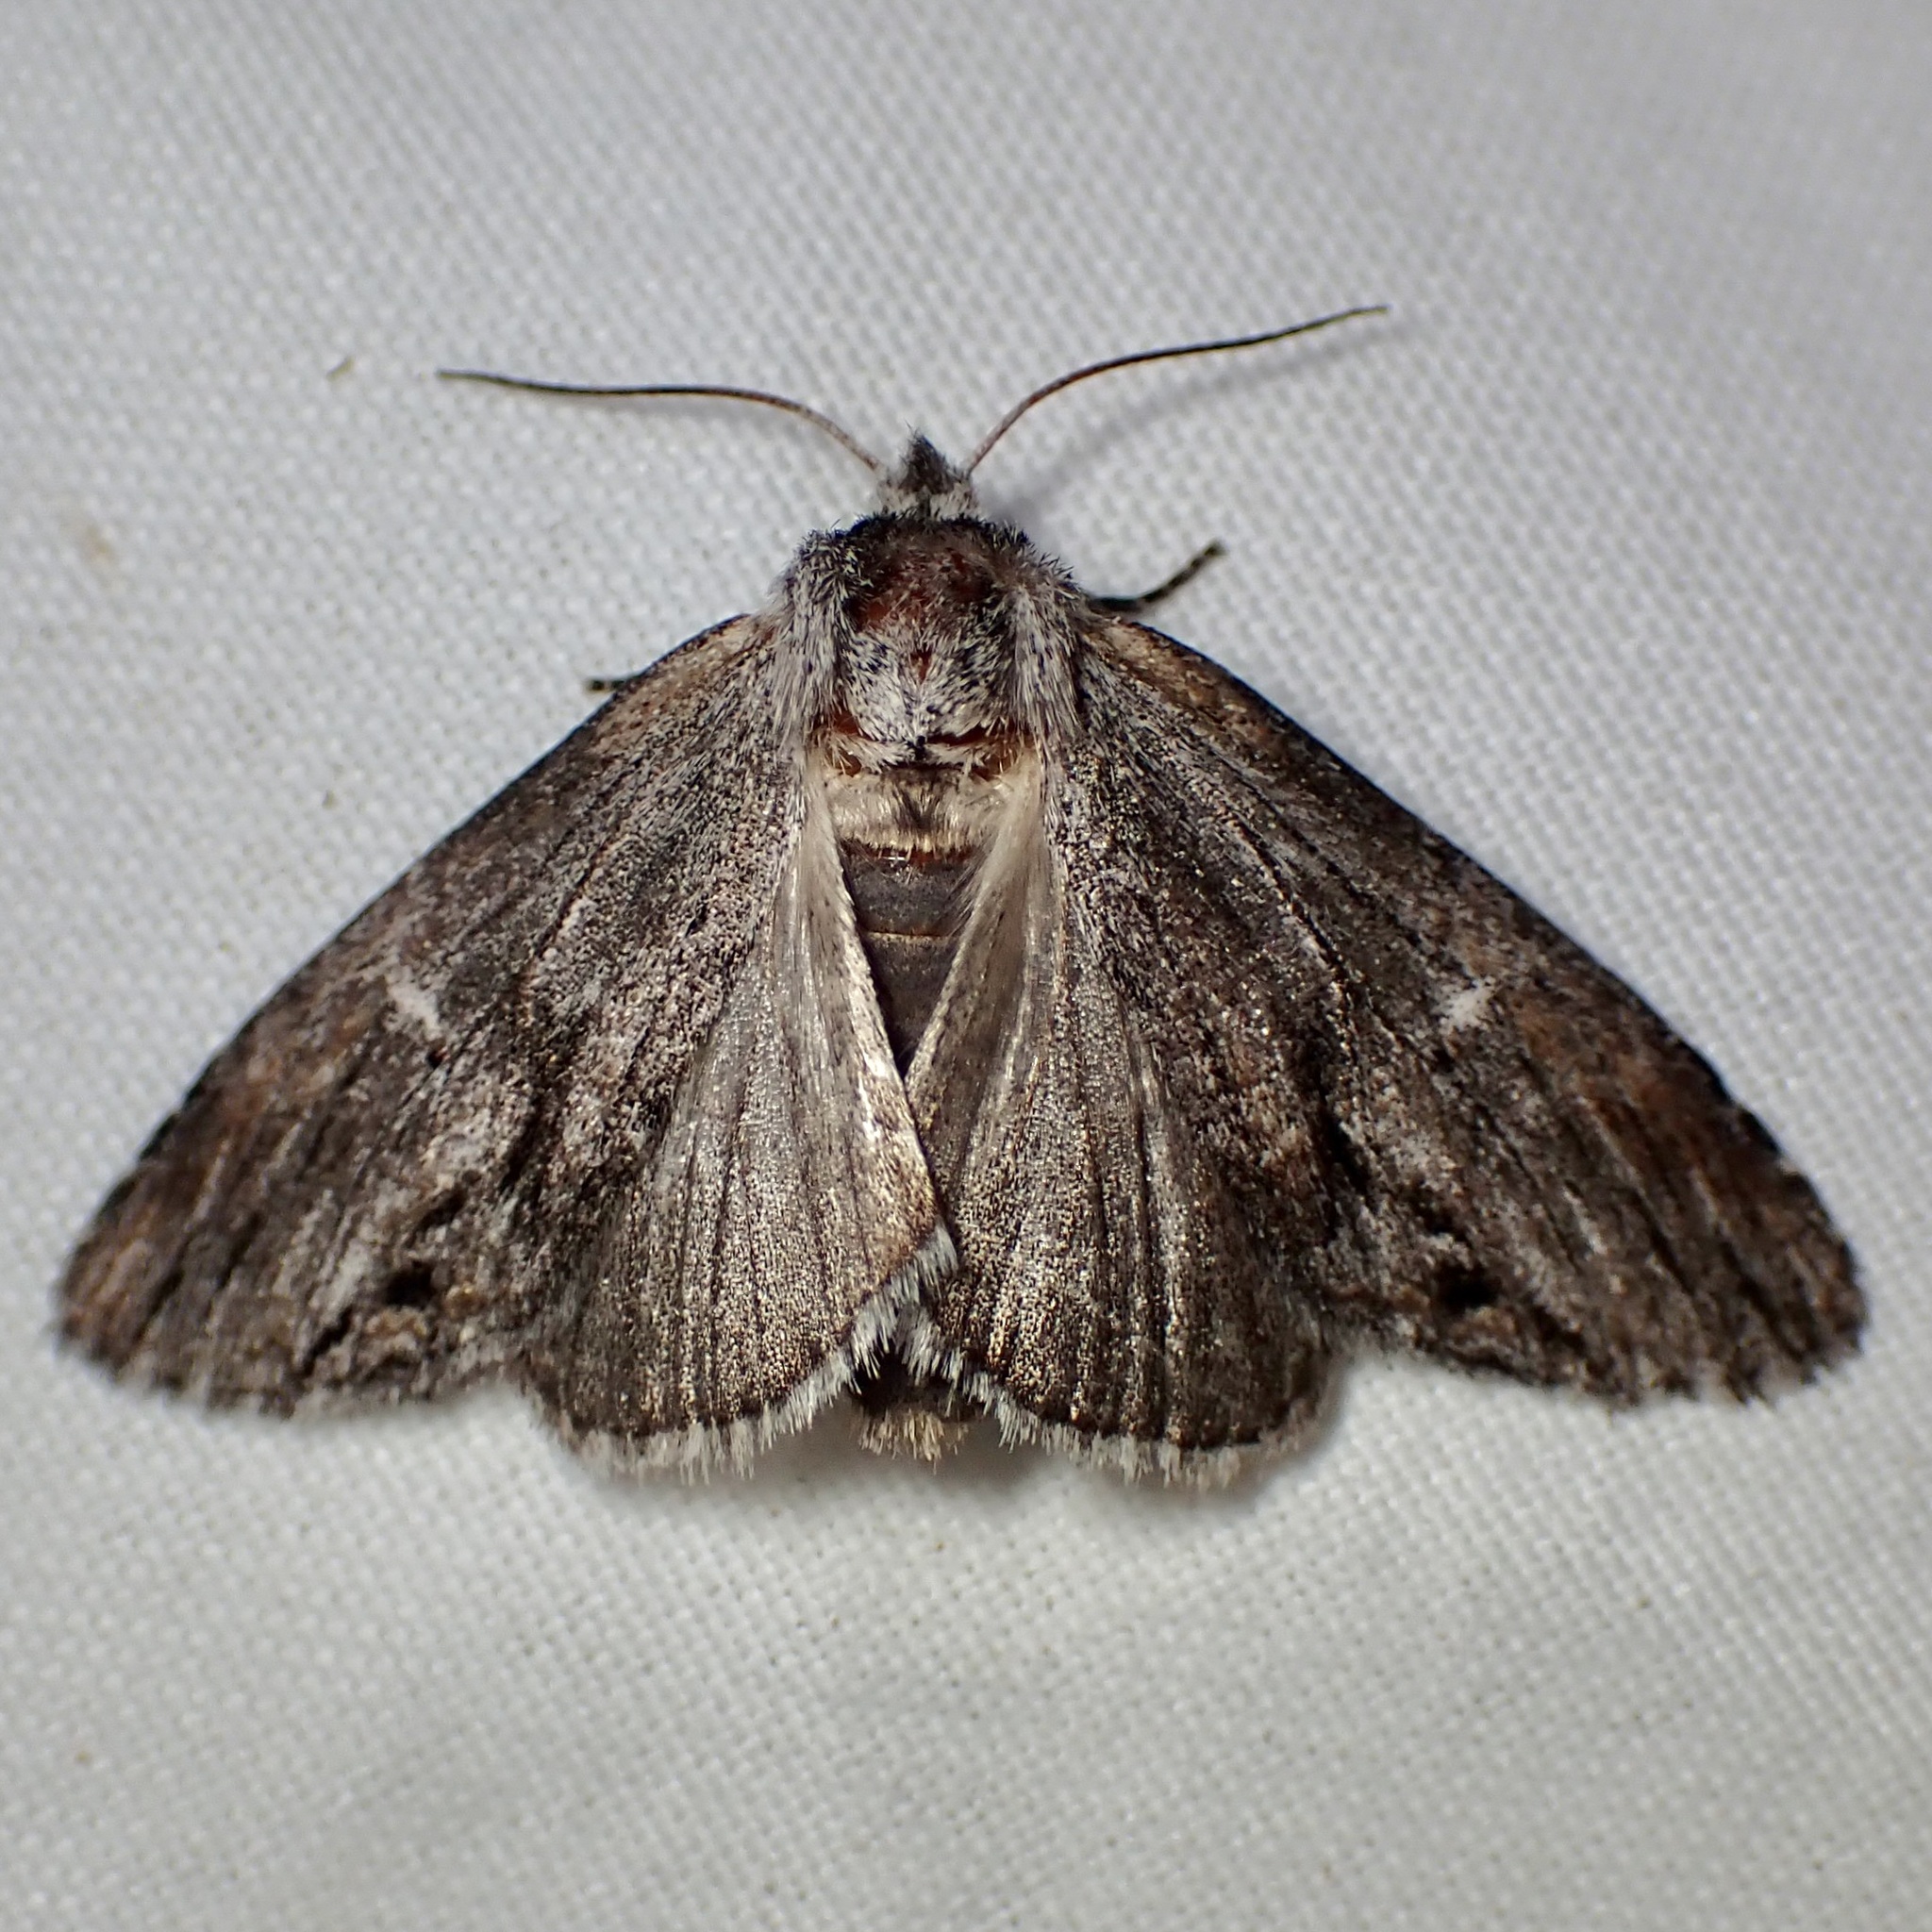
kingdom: Animalia
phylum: Arthropoda
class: Insecta
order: Lepidoptera
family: Notodontidae
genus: Notela
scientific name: Notela jaliscana
